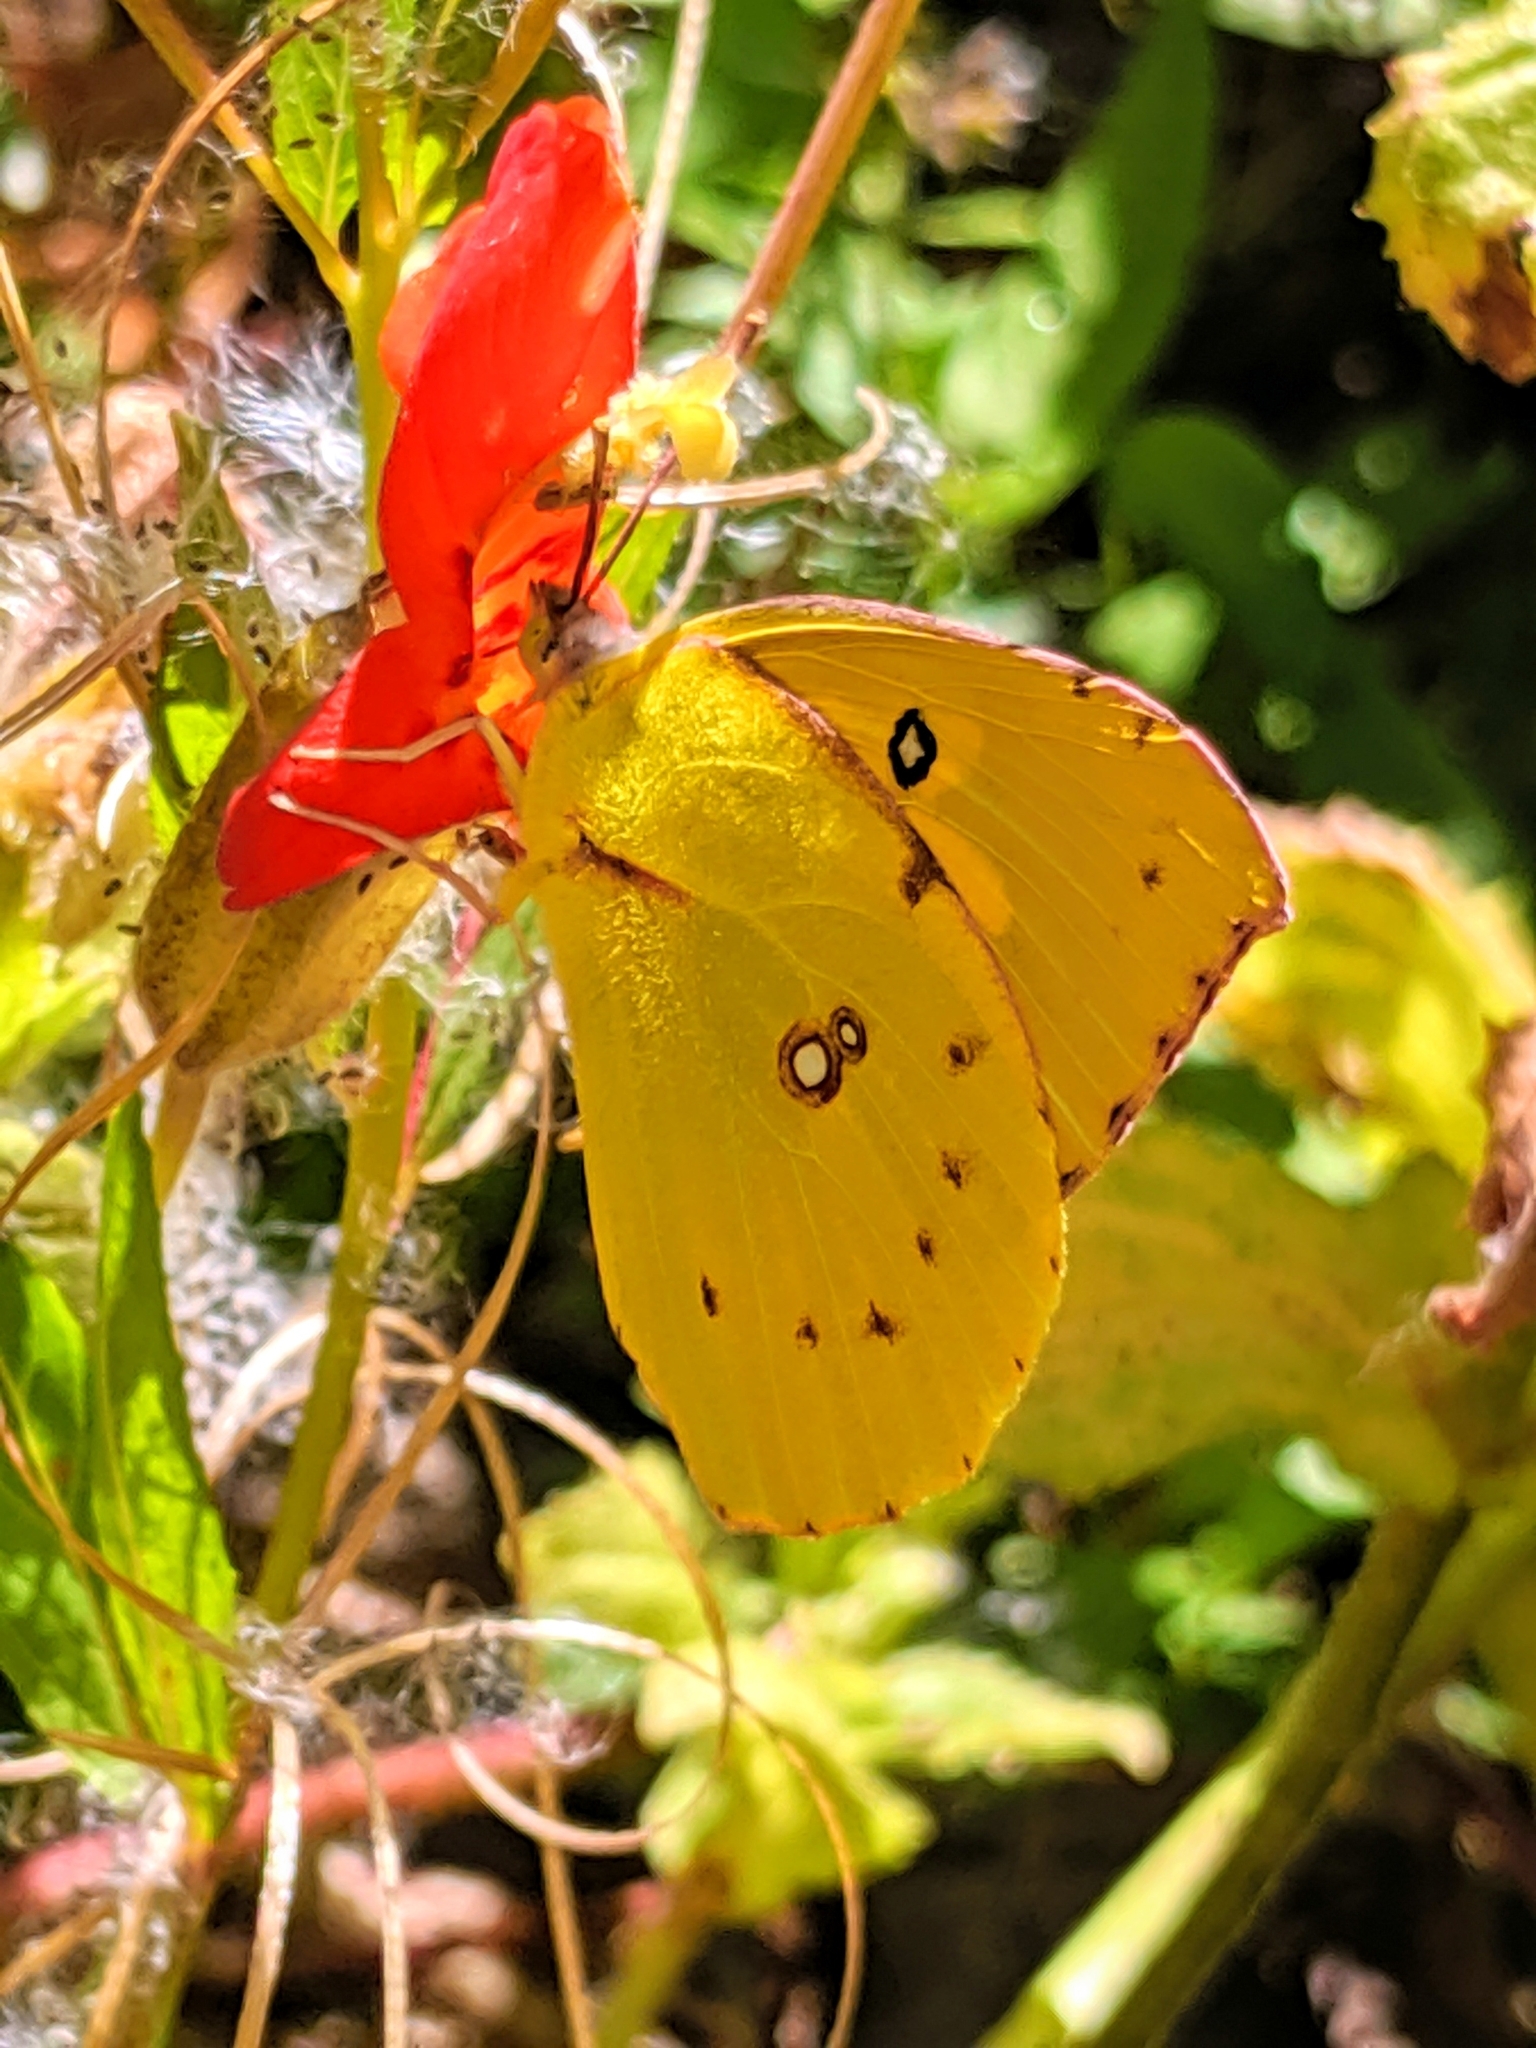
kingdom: Animalia
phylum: Arthropoda
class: Insecta
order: Lepidoptera
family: Pieridae
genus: Zerene
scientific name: Zerene eurydice
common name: California dogface
